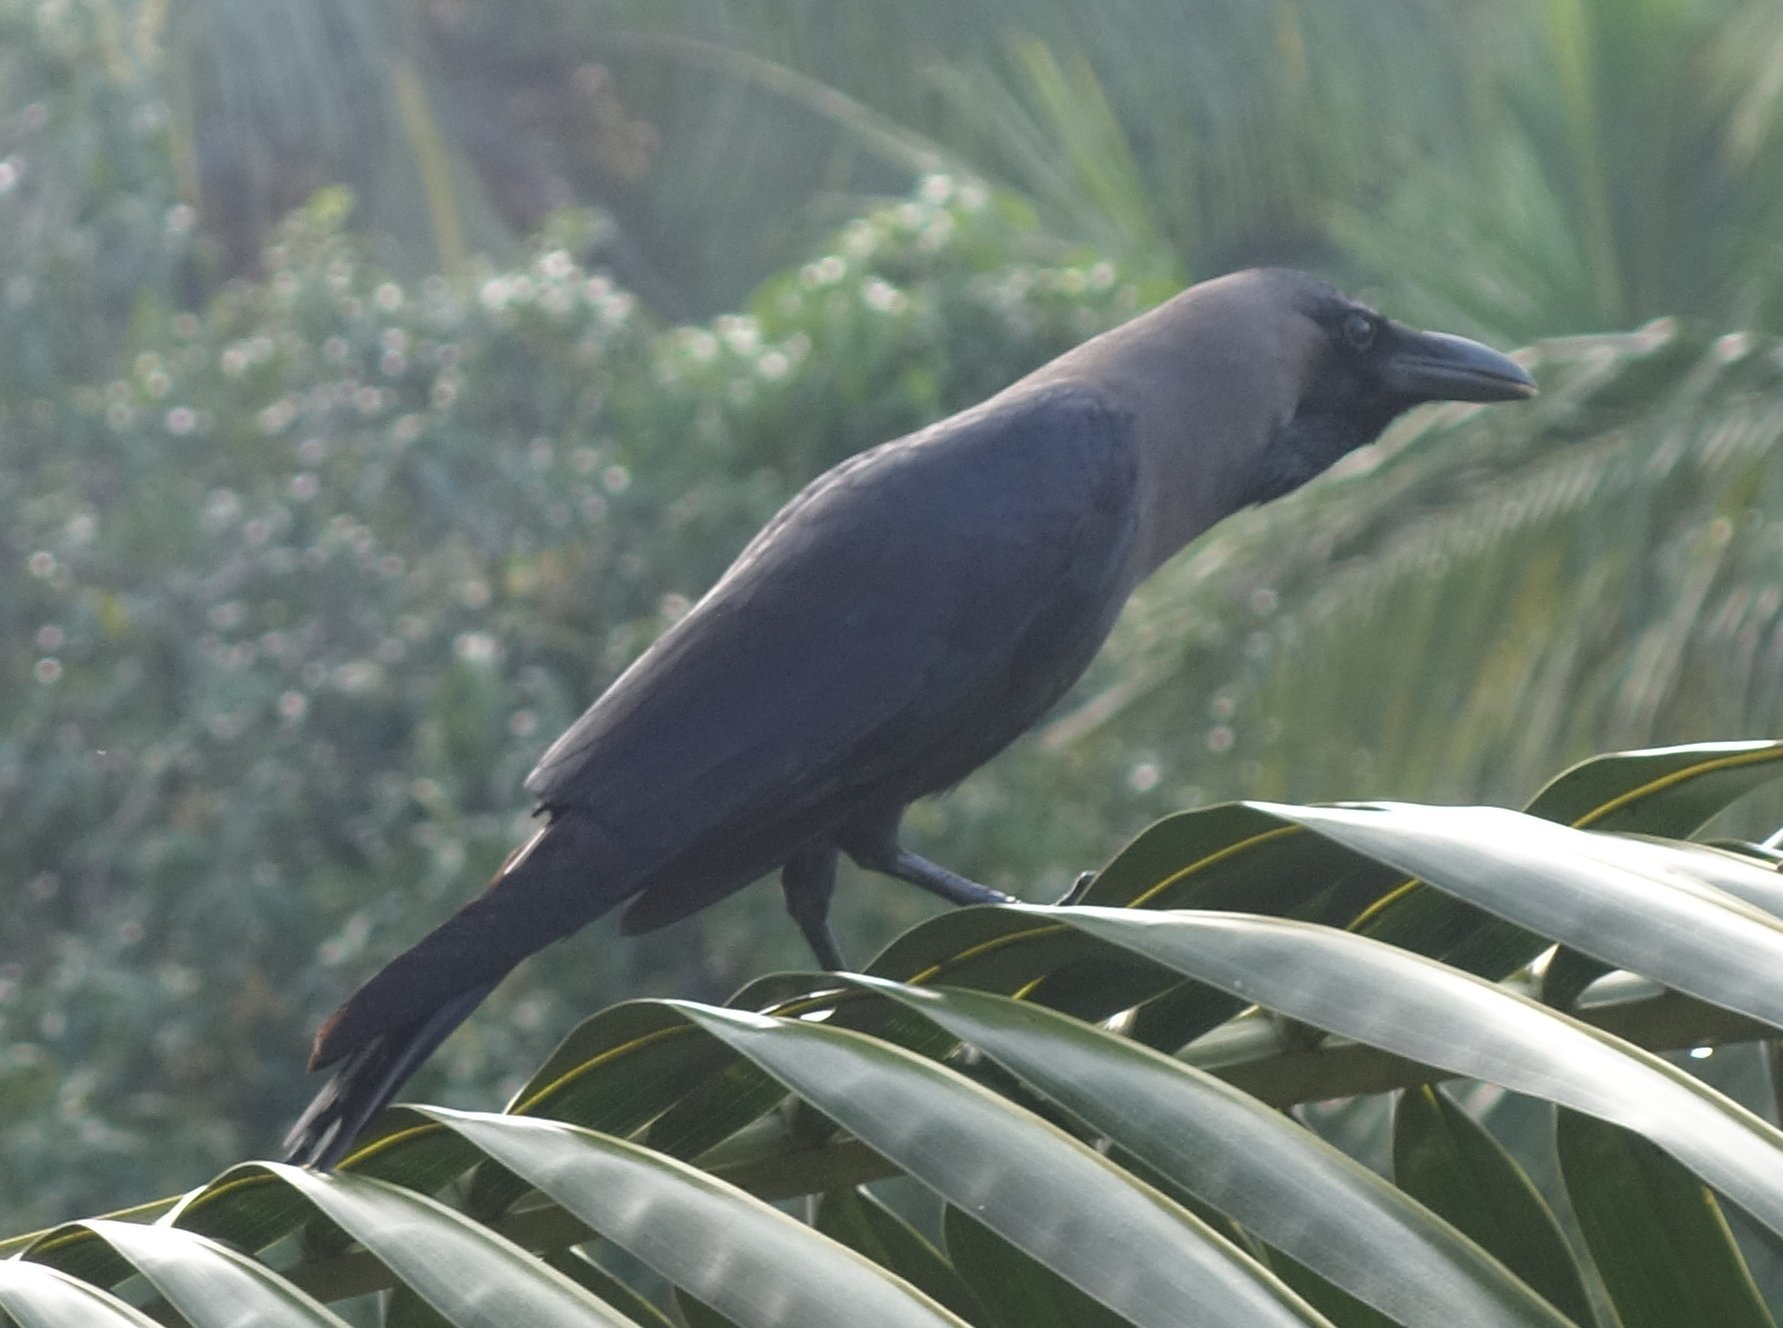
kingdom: Animalia
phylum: Chordata
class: Aves
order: Passeriformes
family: Corvidae
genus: Corvus
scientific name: Corvus splendens
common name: House crow
